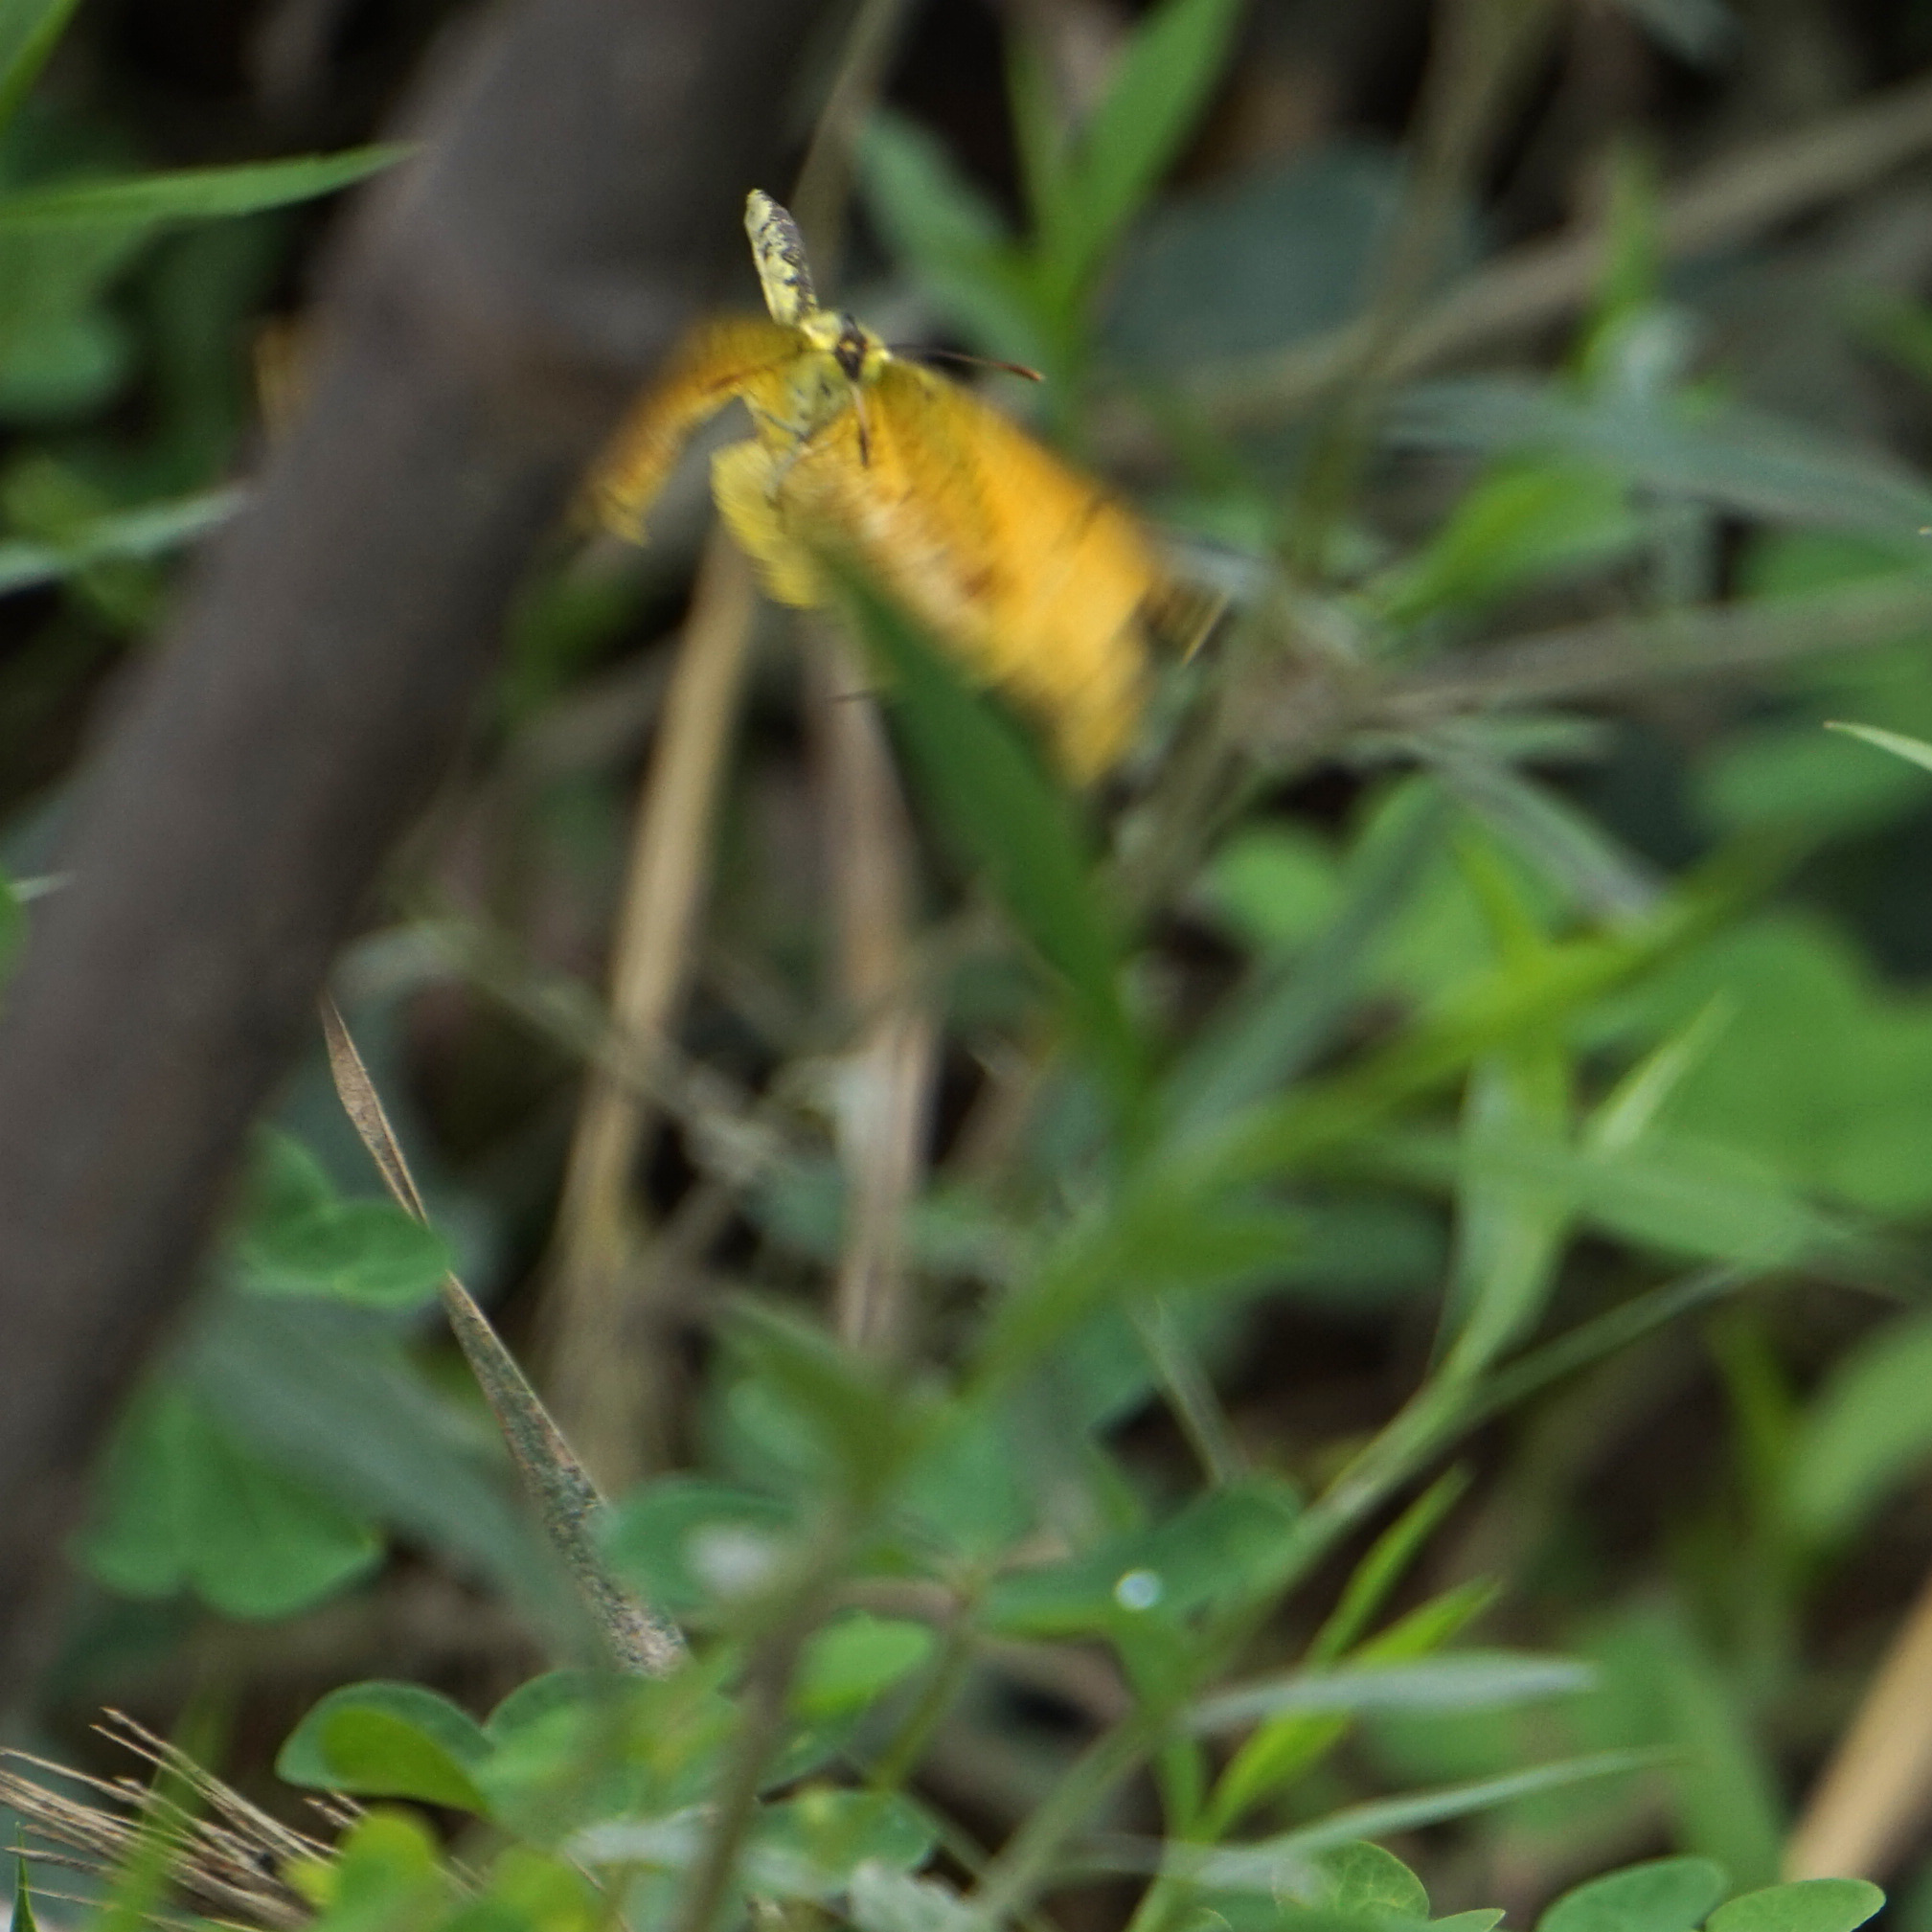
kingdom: Animalia
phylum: Arthropoda
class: Insecta
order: Lepidoptera
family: Pieridae
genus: Abaeis
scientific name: Abaeis nicippe
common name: Sleepy orange
